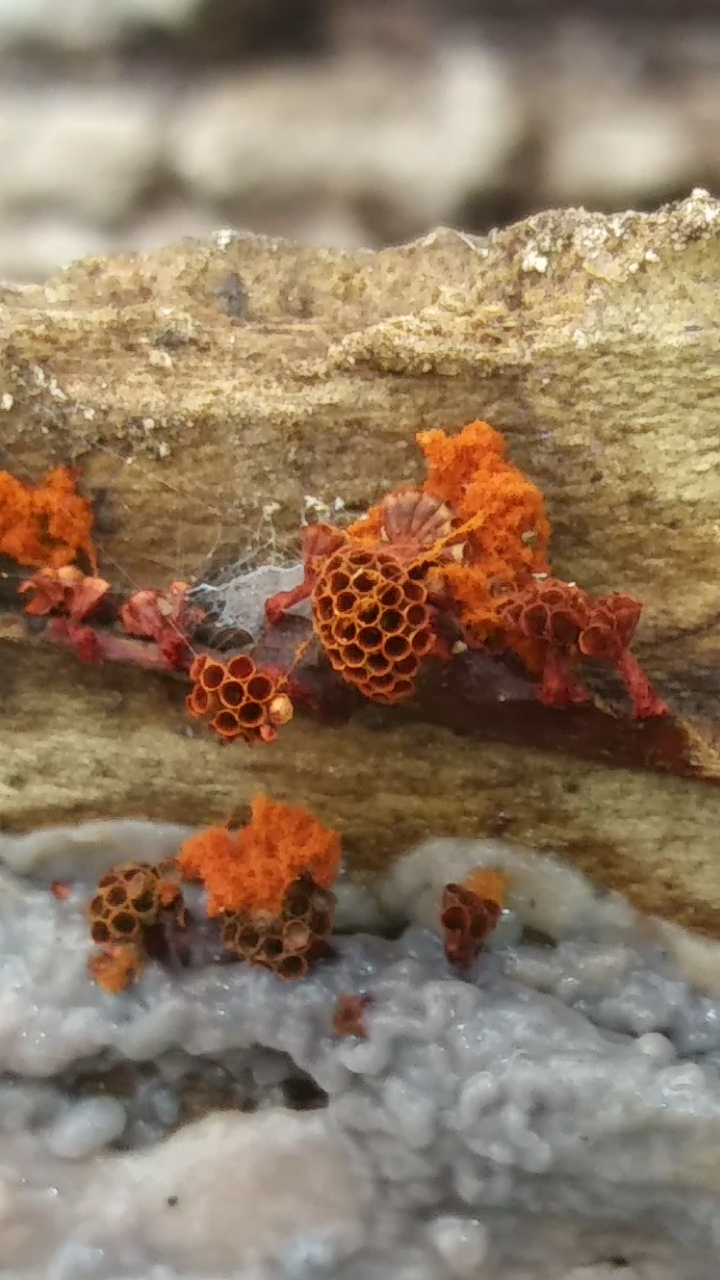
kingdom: Protozoa
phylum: Mycetozoa
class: Myxomycetes
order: Trichiales
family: Trichiaceae
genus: Metatrichia
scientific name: Metatrichia vesparia
